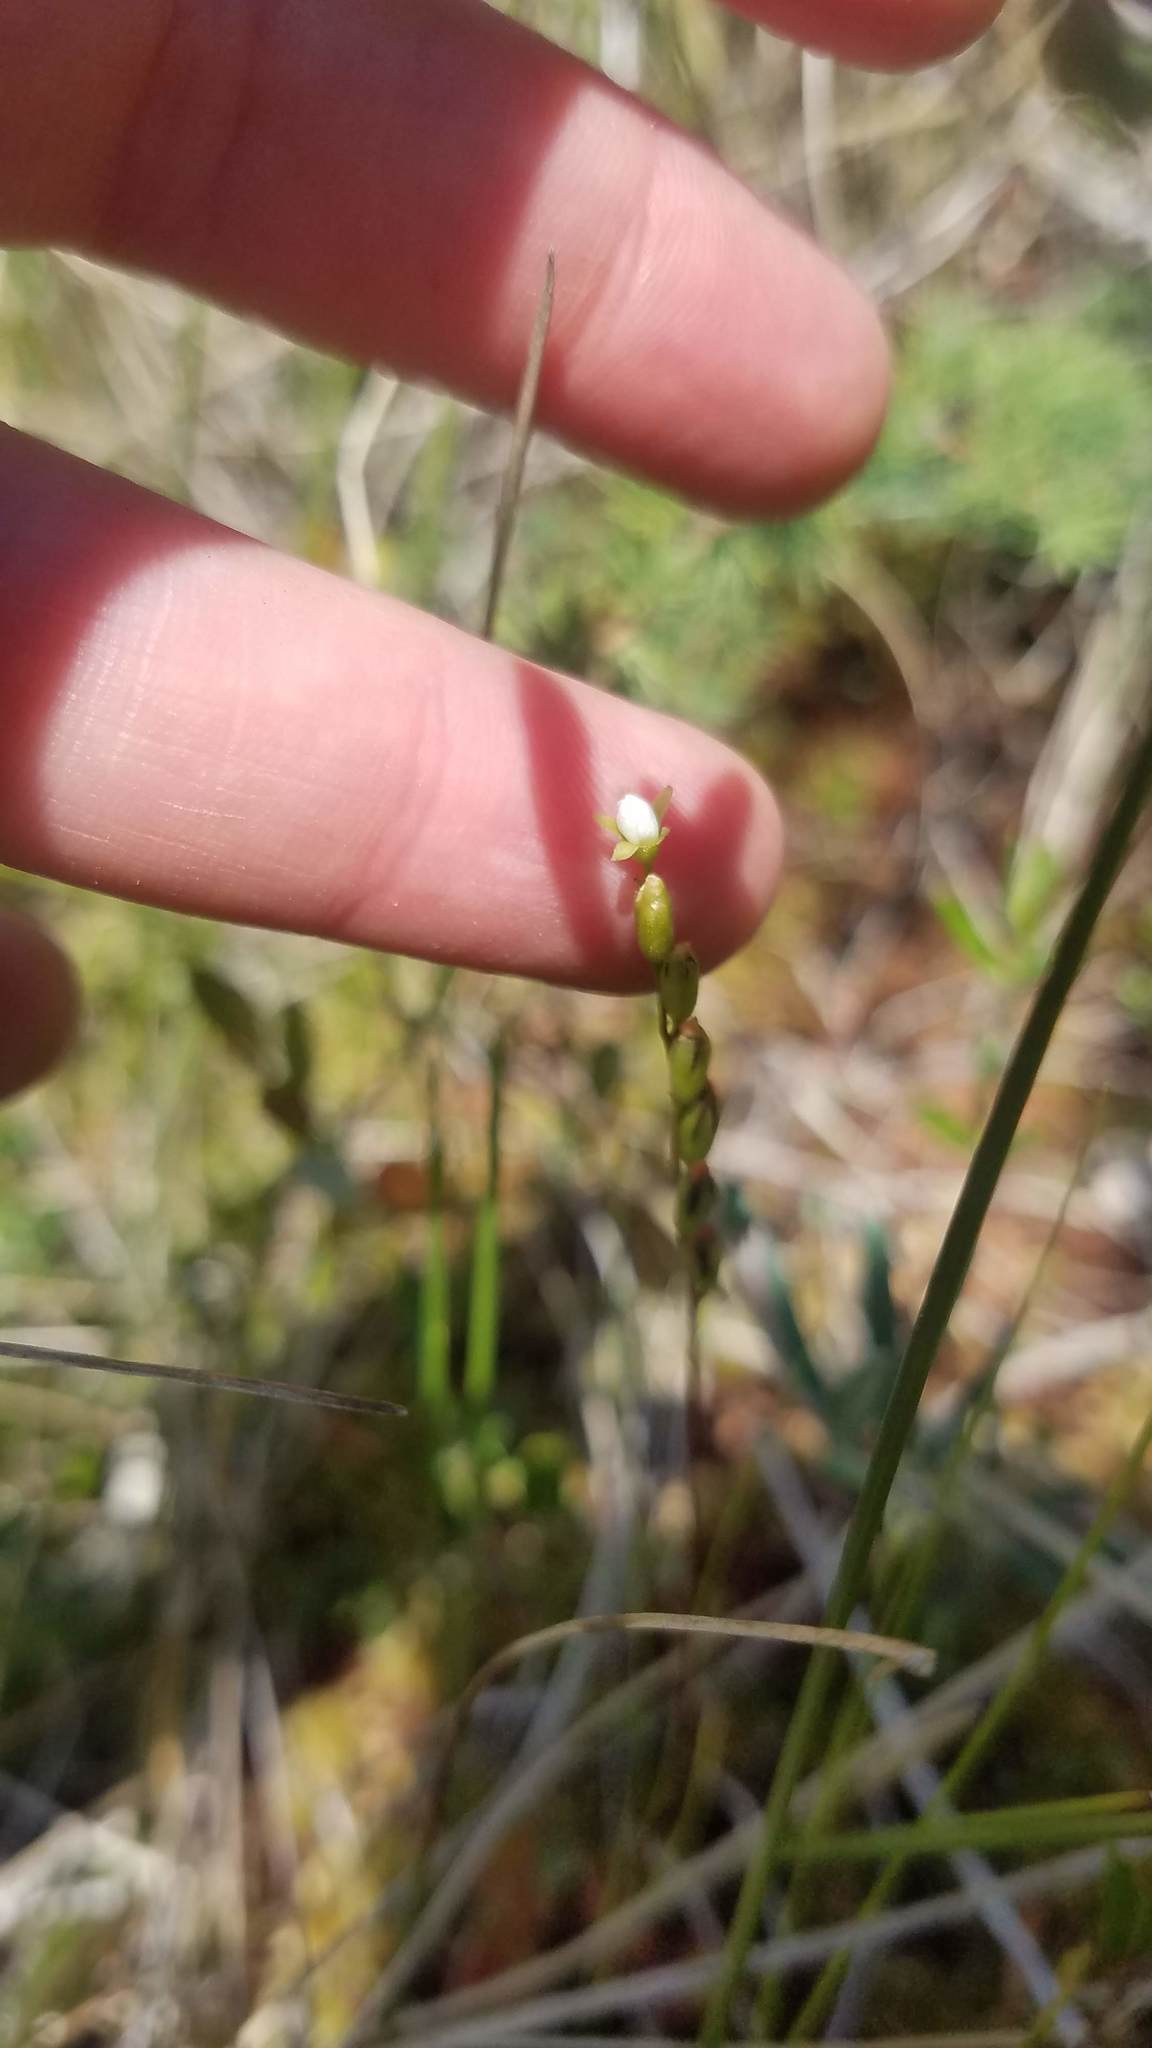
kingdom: Plantae
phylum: Tracheophyta
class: Magnoliopsida
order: Caryophyllales
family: Droseraceae
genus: Drosera
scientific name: Drosera rotundifolia
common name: Round-leaved sundew
